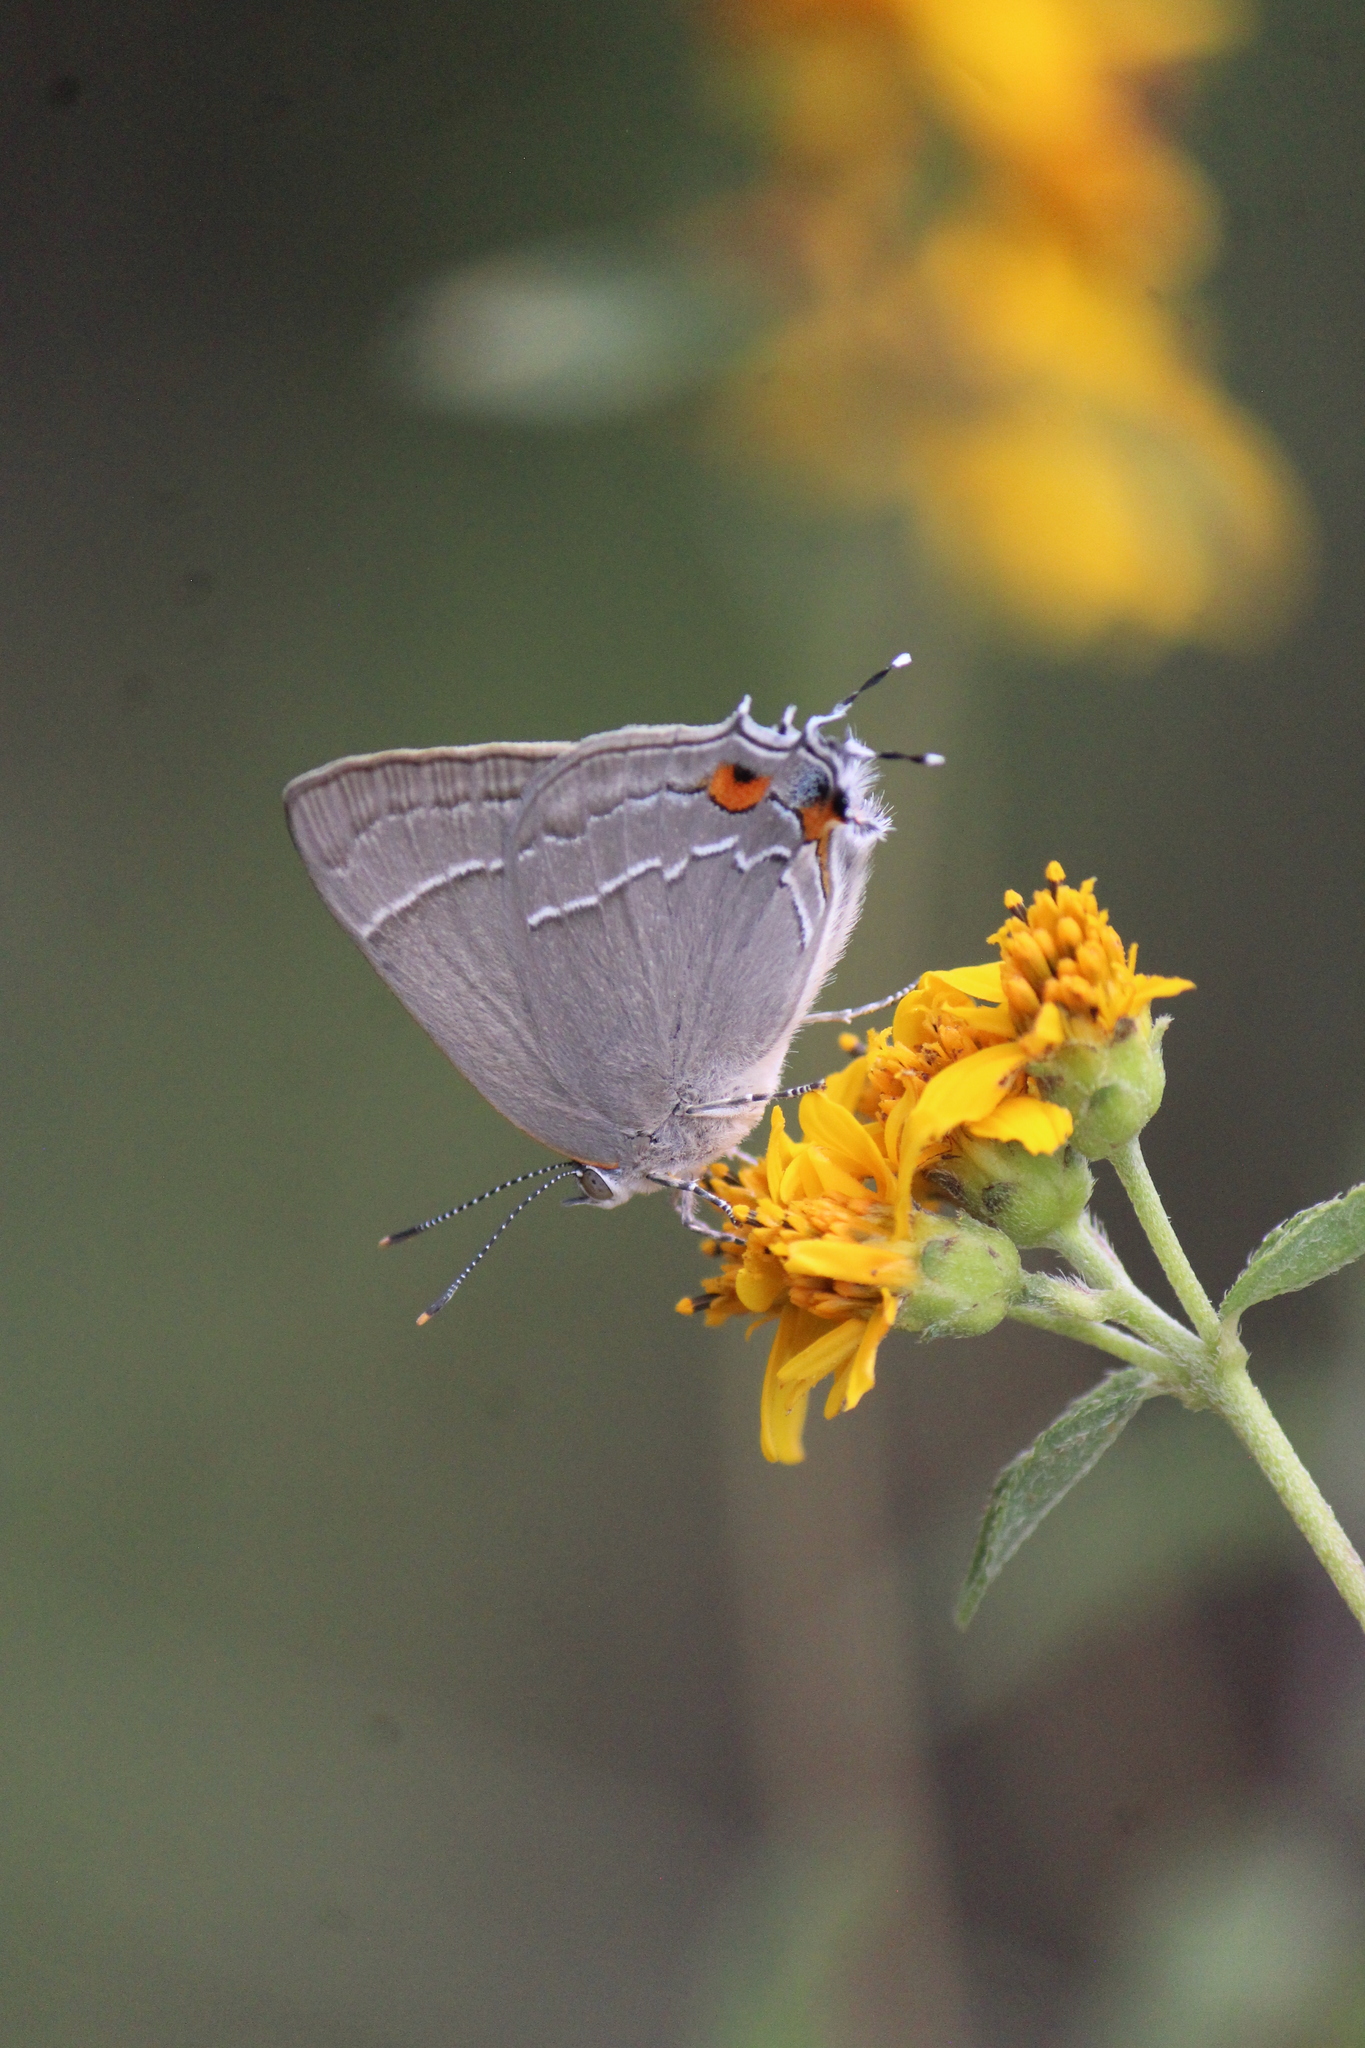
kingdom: Animalia
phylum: Arthropoda
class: Insecta
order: Lepidoptera
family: Lycaenidae
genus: Rekoa
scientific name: Rekoa
